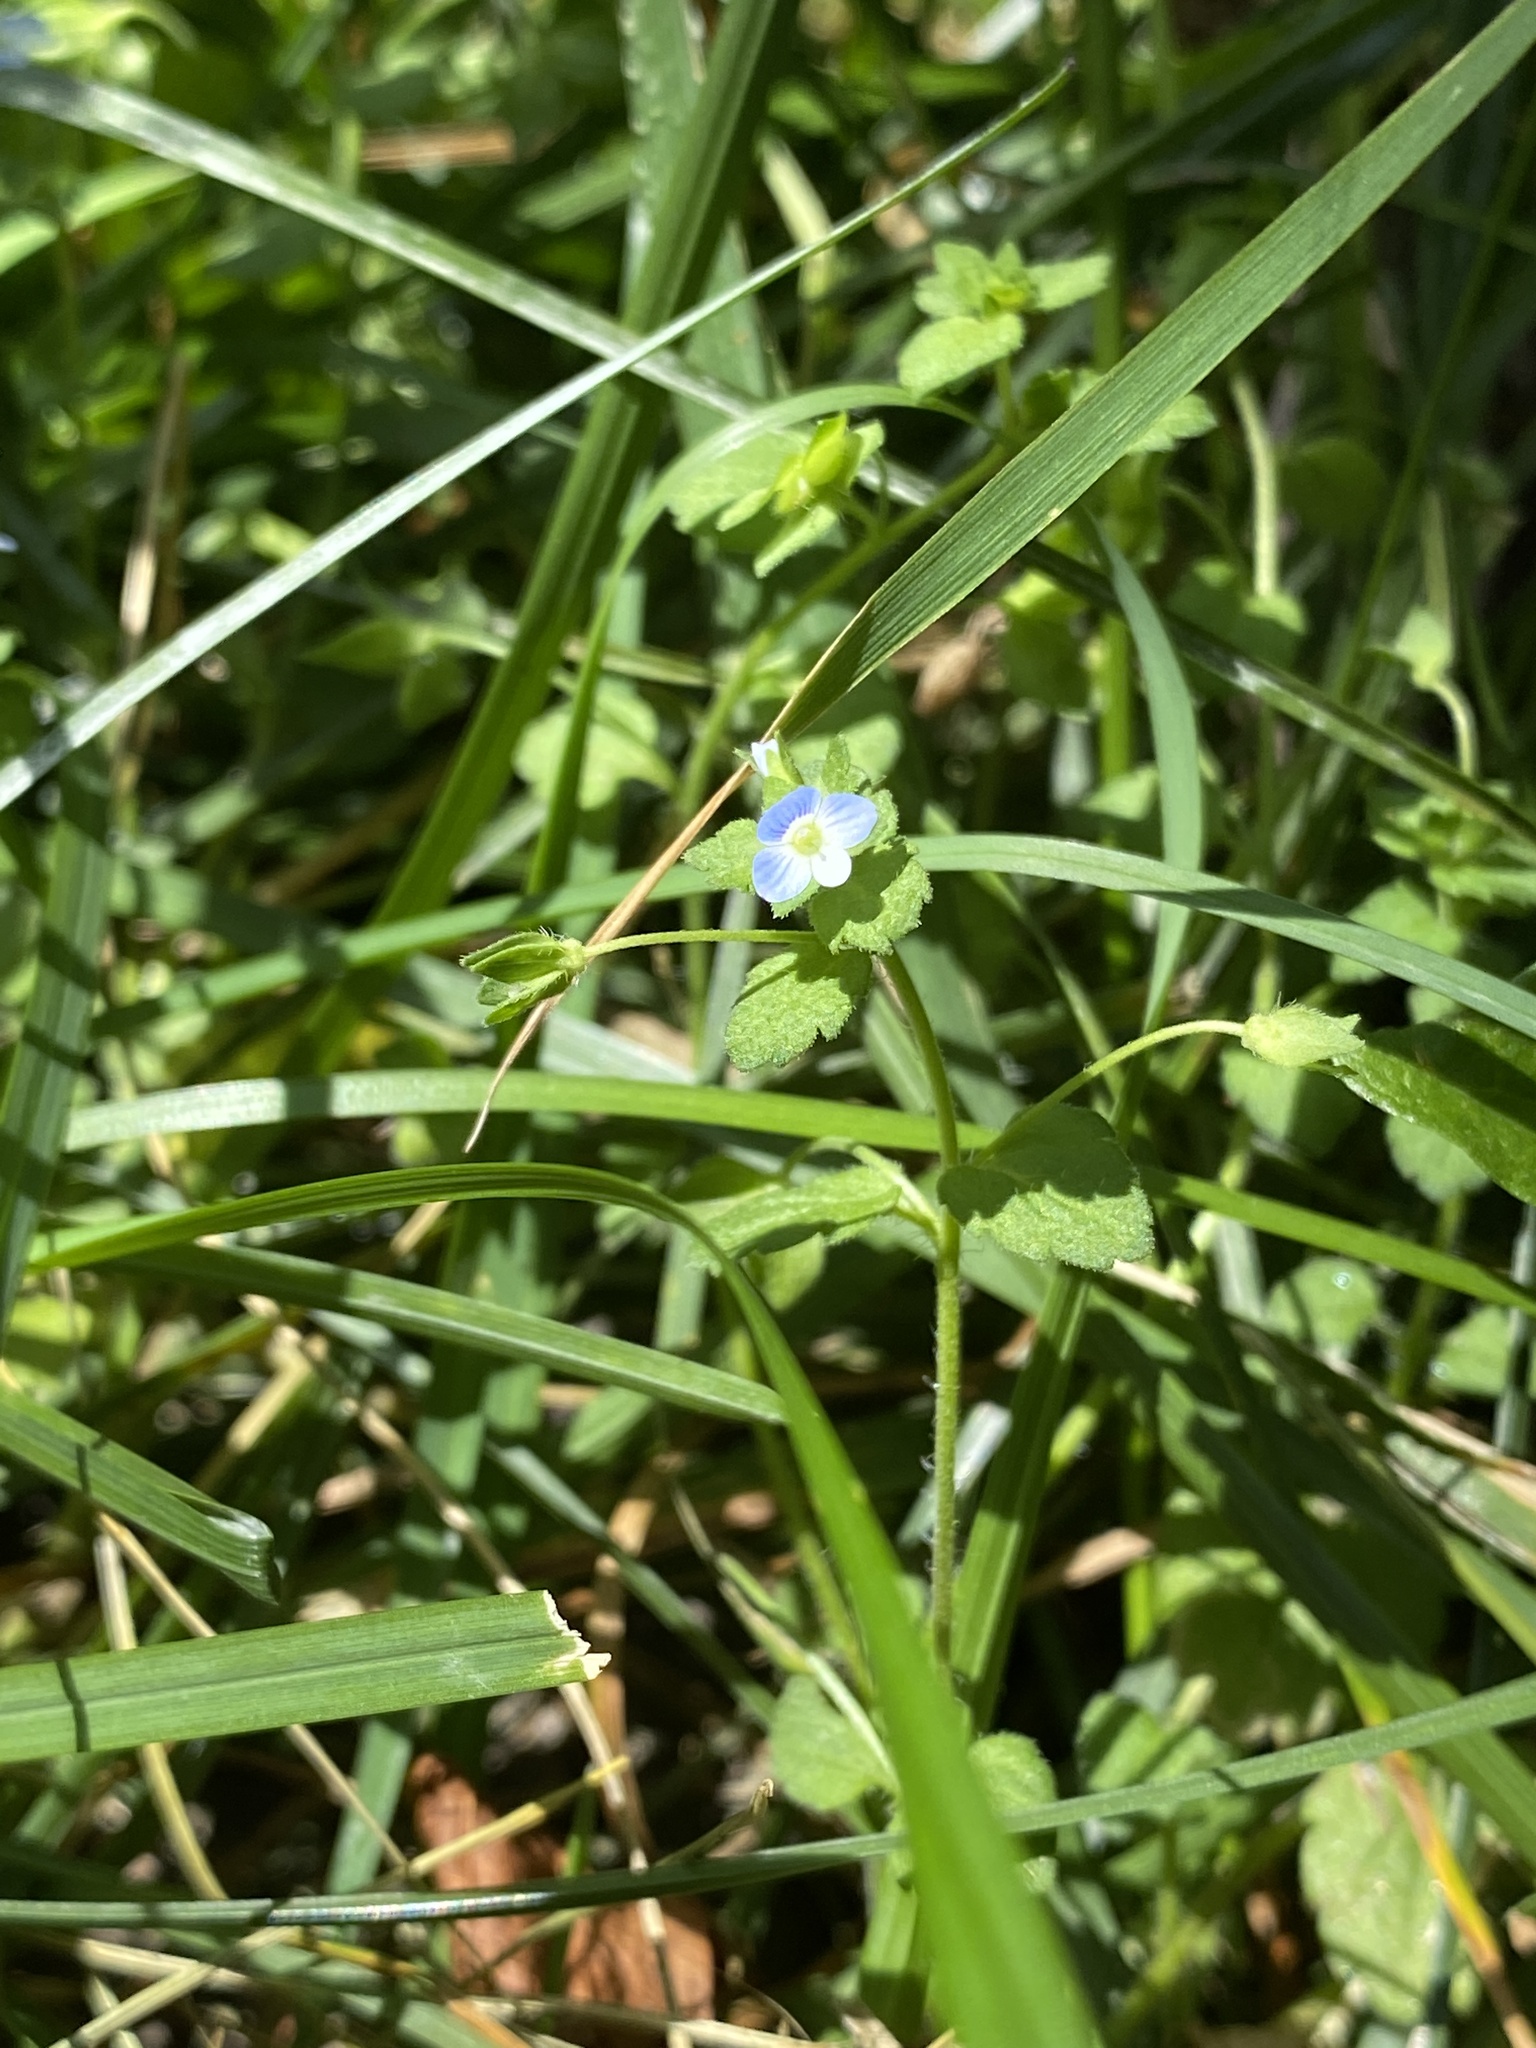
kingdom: Plantae
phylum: Tracheophyta
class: Magnoliopsida
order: Lamiales
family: Plantaginaceae
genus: Veronica
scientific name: Veronica persica
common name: Common field-speedwell
